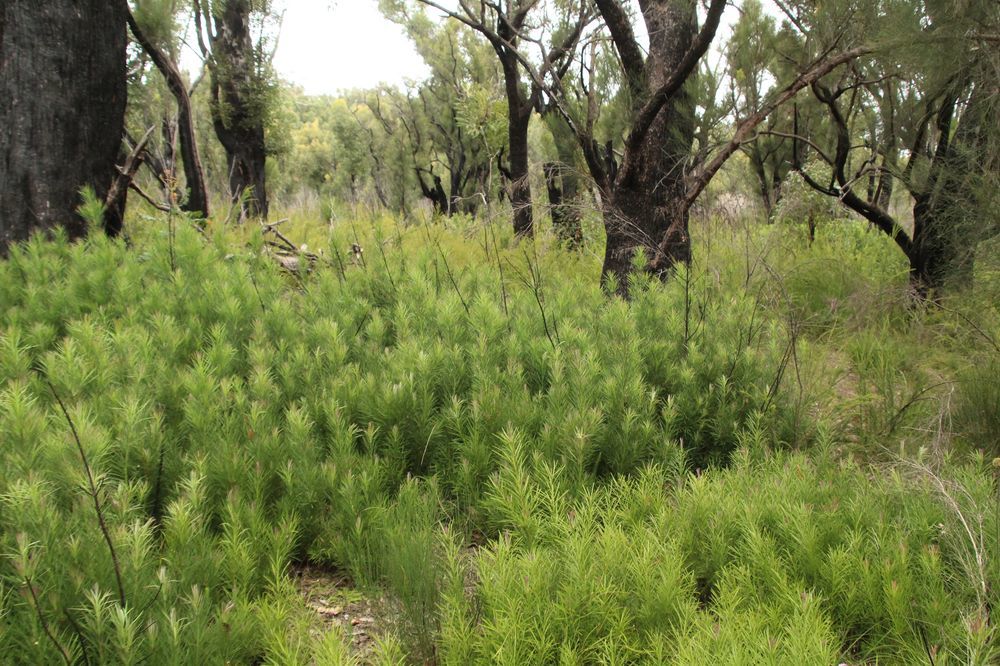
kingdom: Plantae
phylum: Tracheophyta
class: Pinopsida
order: Pinales
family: Podocarpaceae
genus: Podocarpus
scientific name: Podocarpus drouynianus
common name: Emu berry
